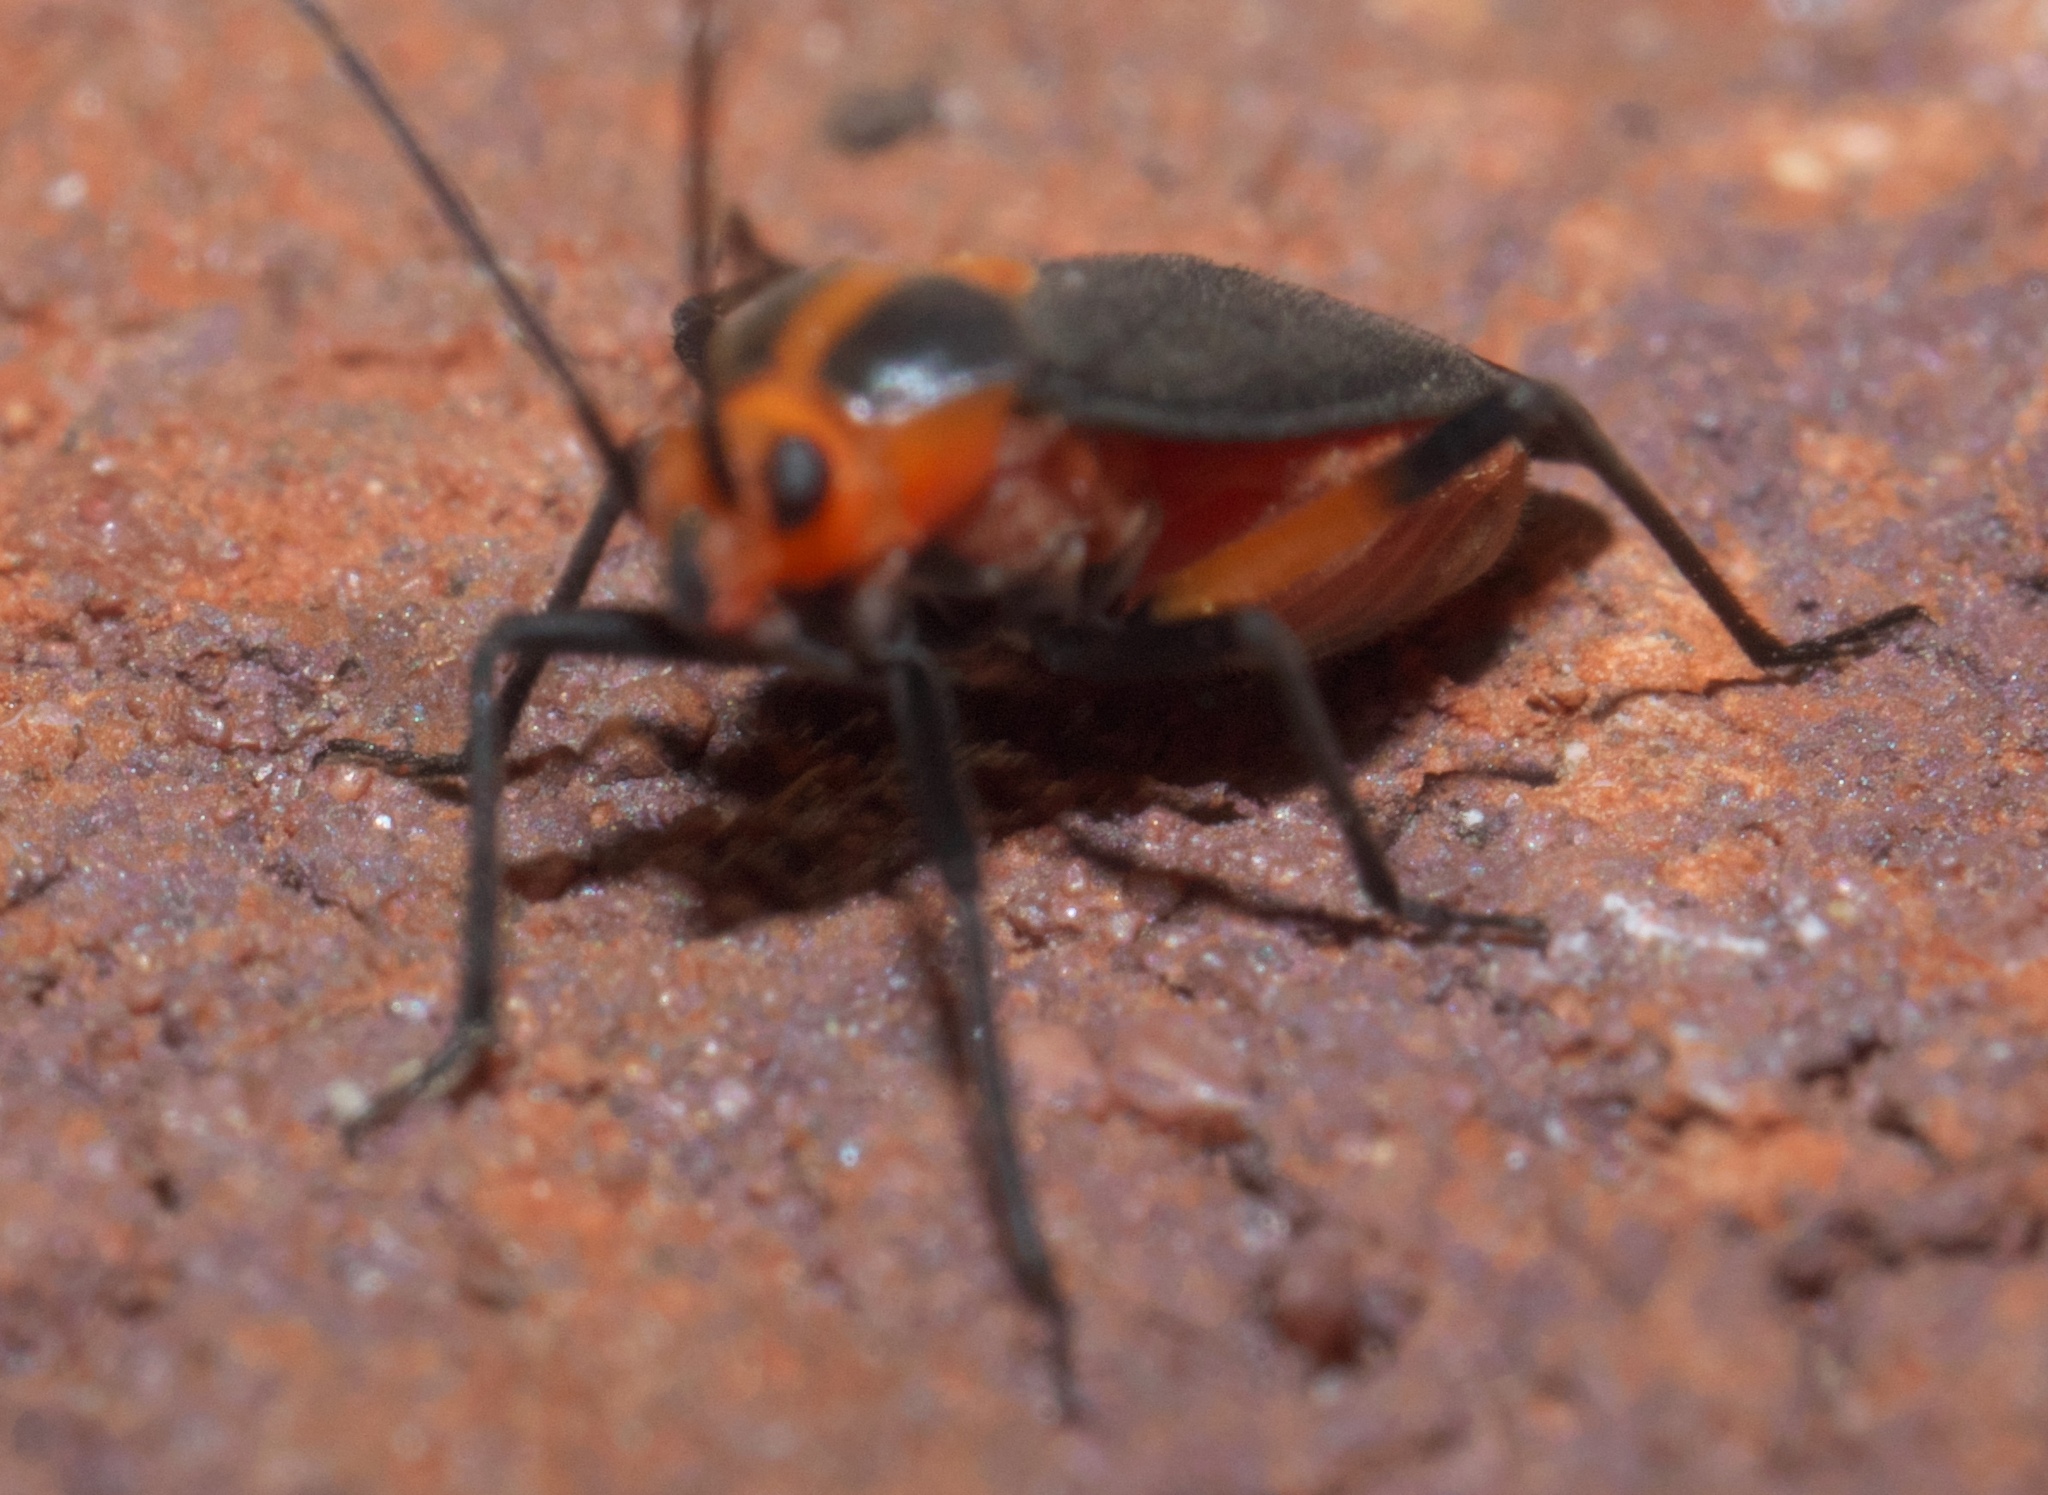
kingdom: Animalia
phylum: Arthropoda
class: Insecta
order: Hemiptera
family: Miridae
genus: Prepops
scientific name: Prepops rubrovittatus
